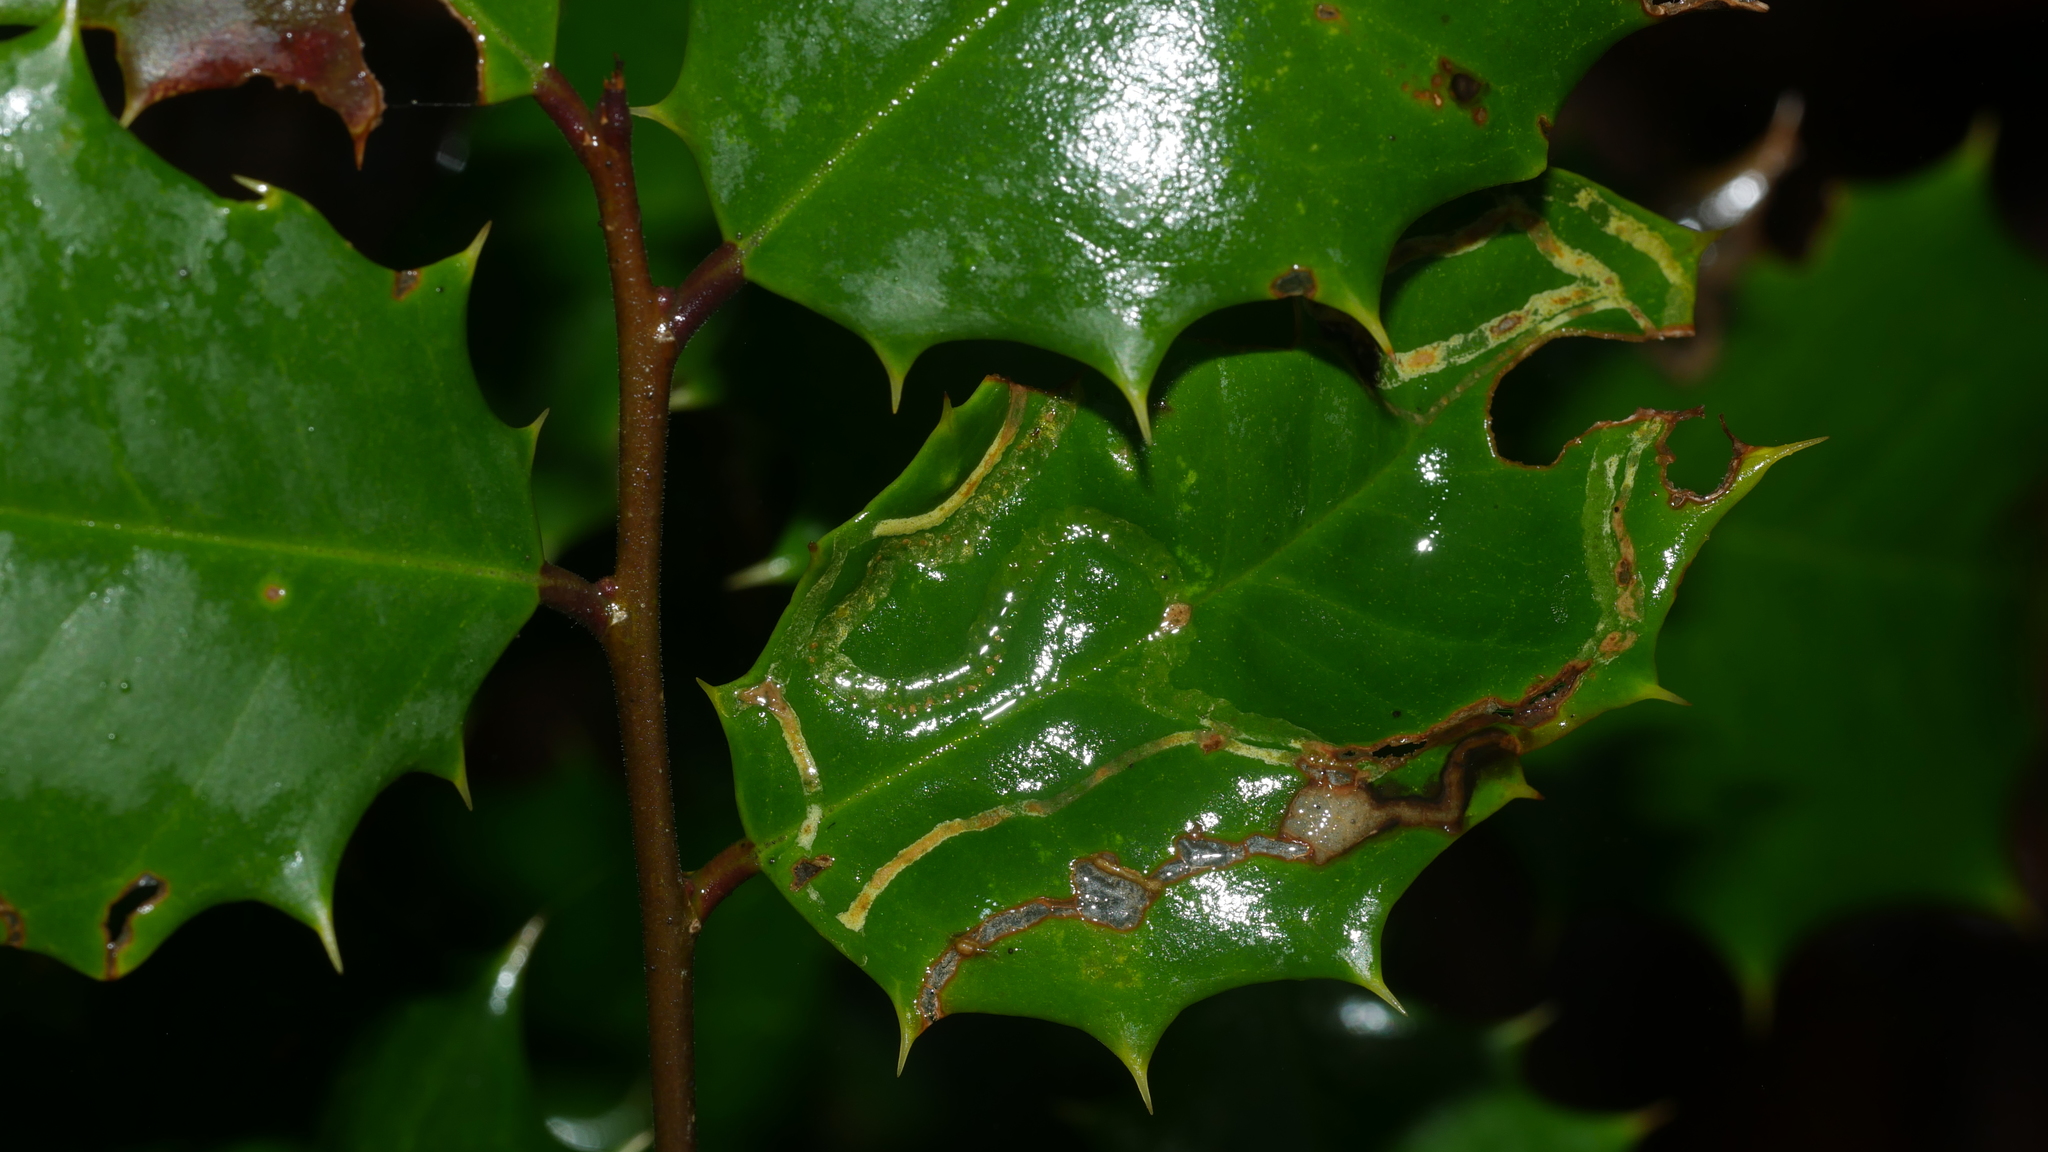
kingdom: Animalia
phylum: Arthropoda
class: Insecta
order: Diptera
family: Agromyzidae
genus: Phytomyza
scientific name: Phytomyza opacae
